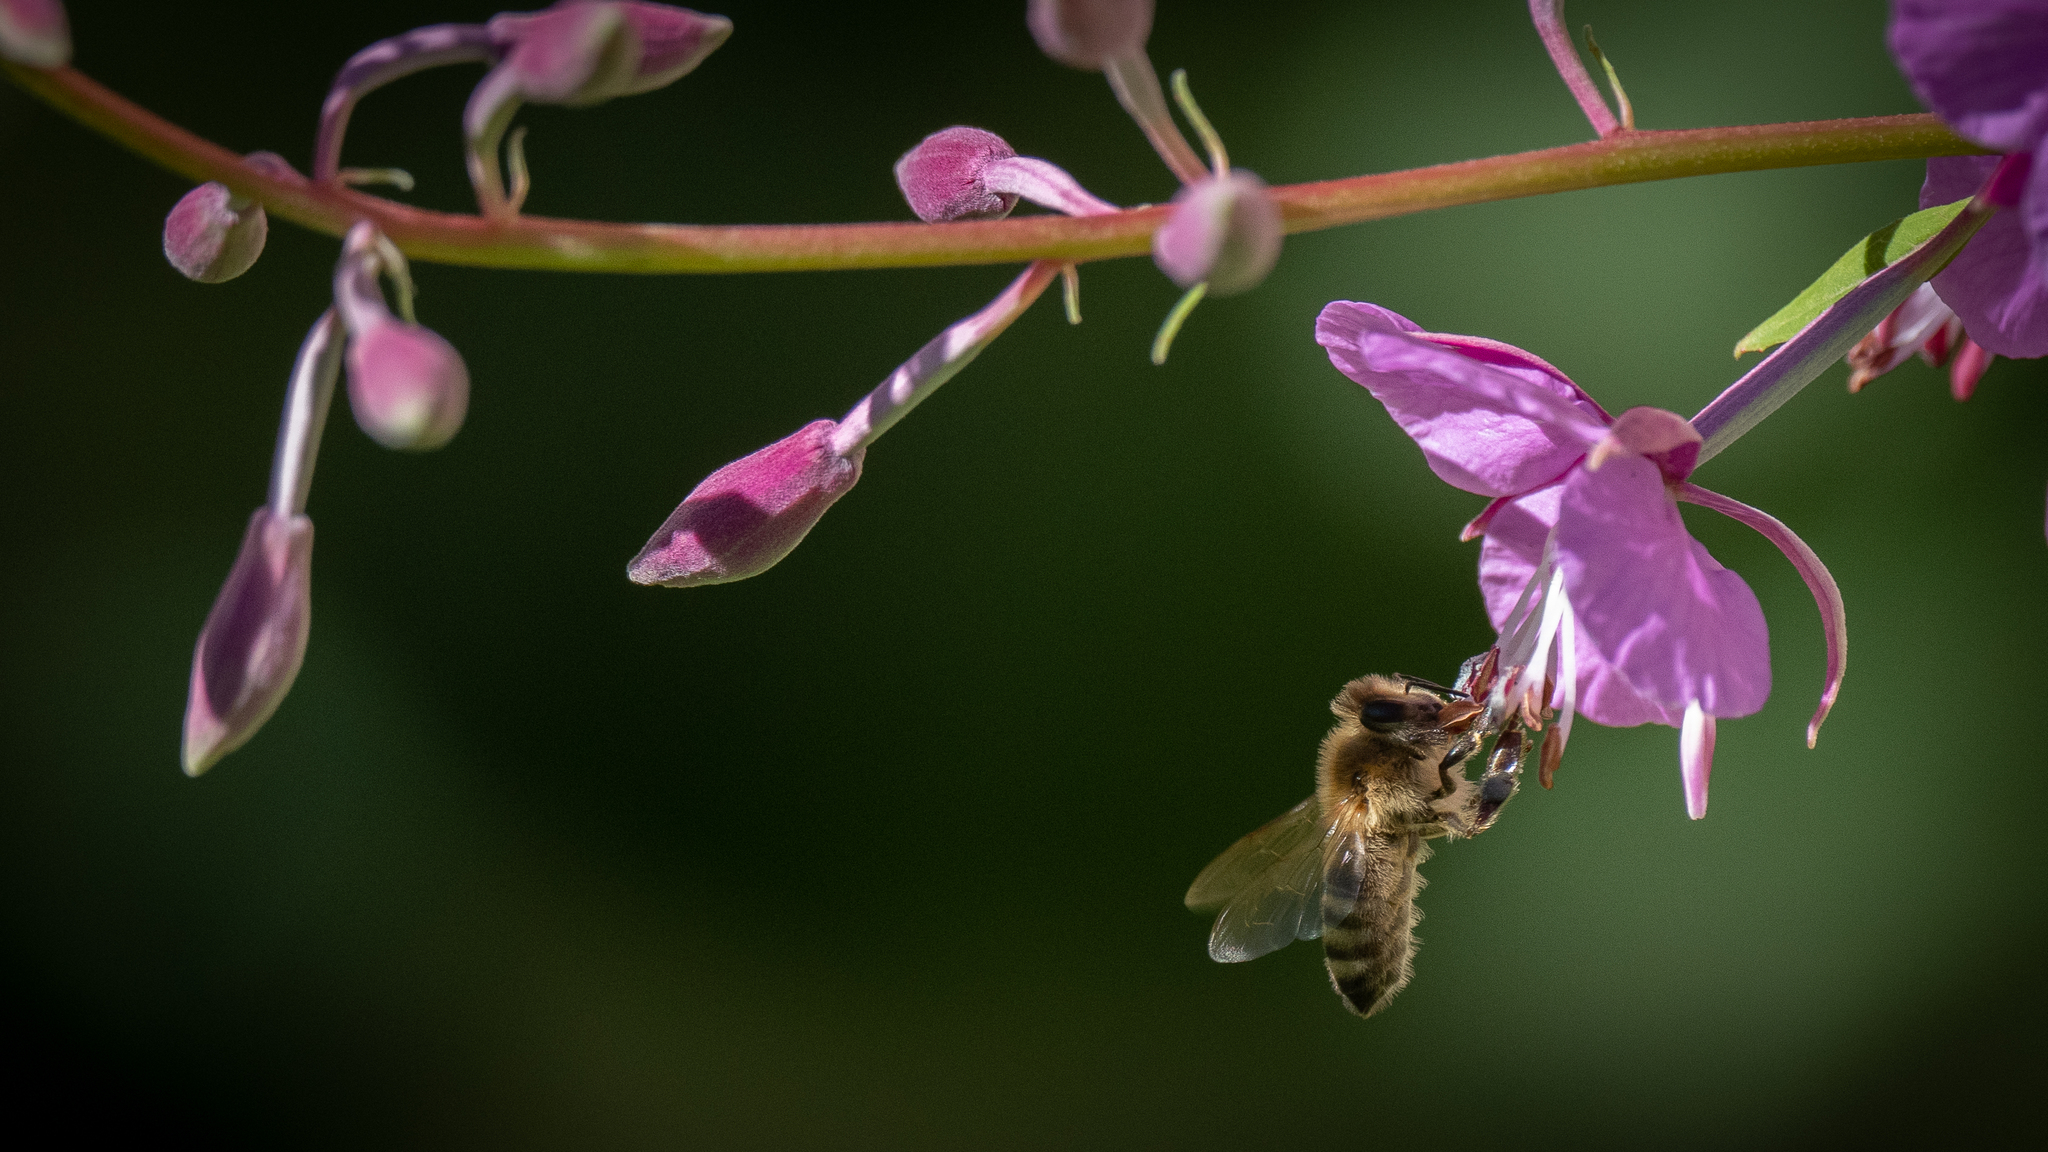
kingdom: Animalia
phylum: Arthropoda
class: Insecta
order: Hymenoptera
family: Apidae
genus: Apis
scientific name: Apis mellifera
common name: Honey bee
